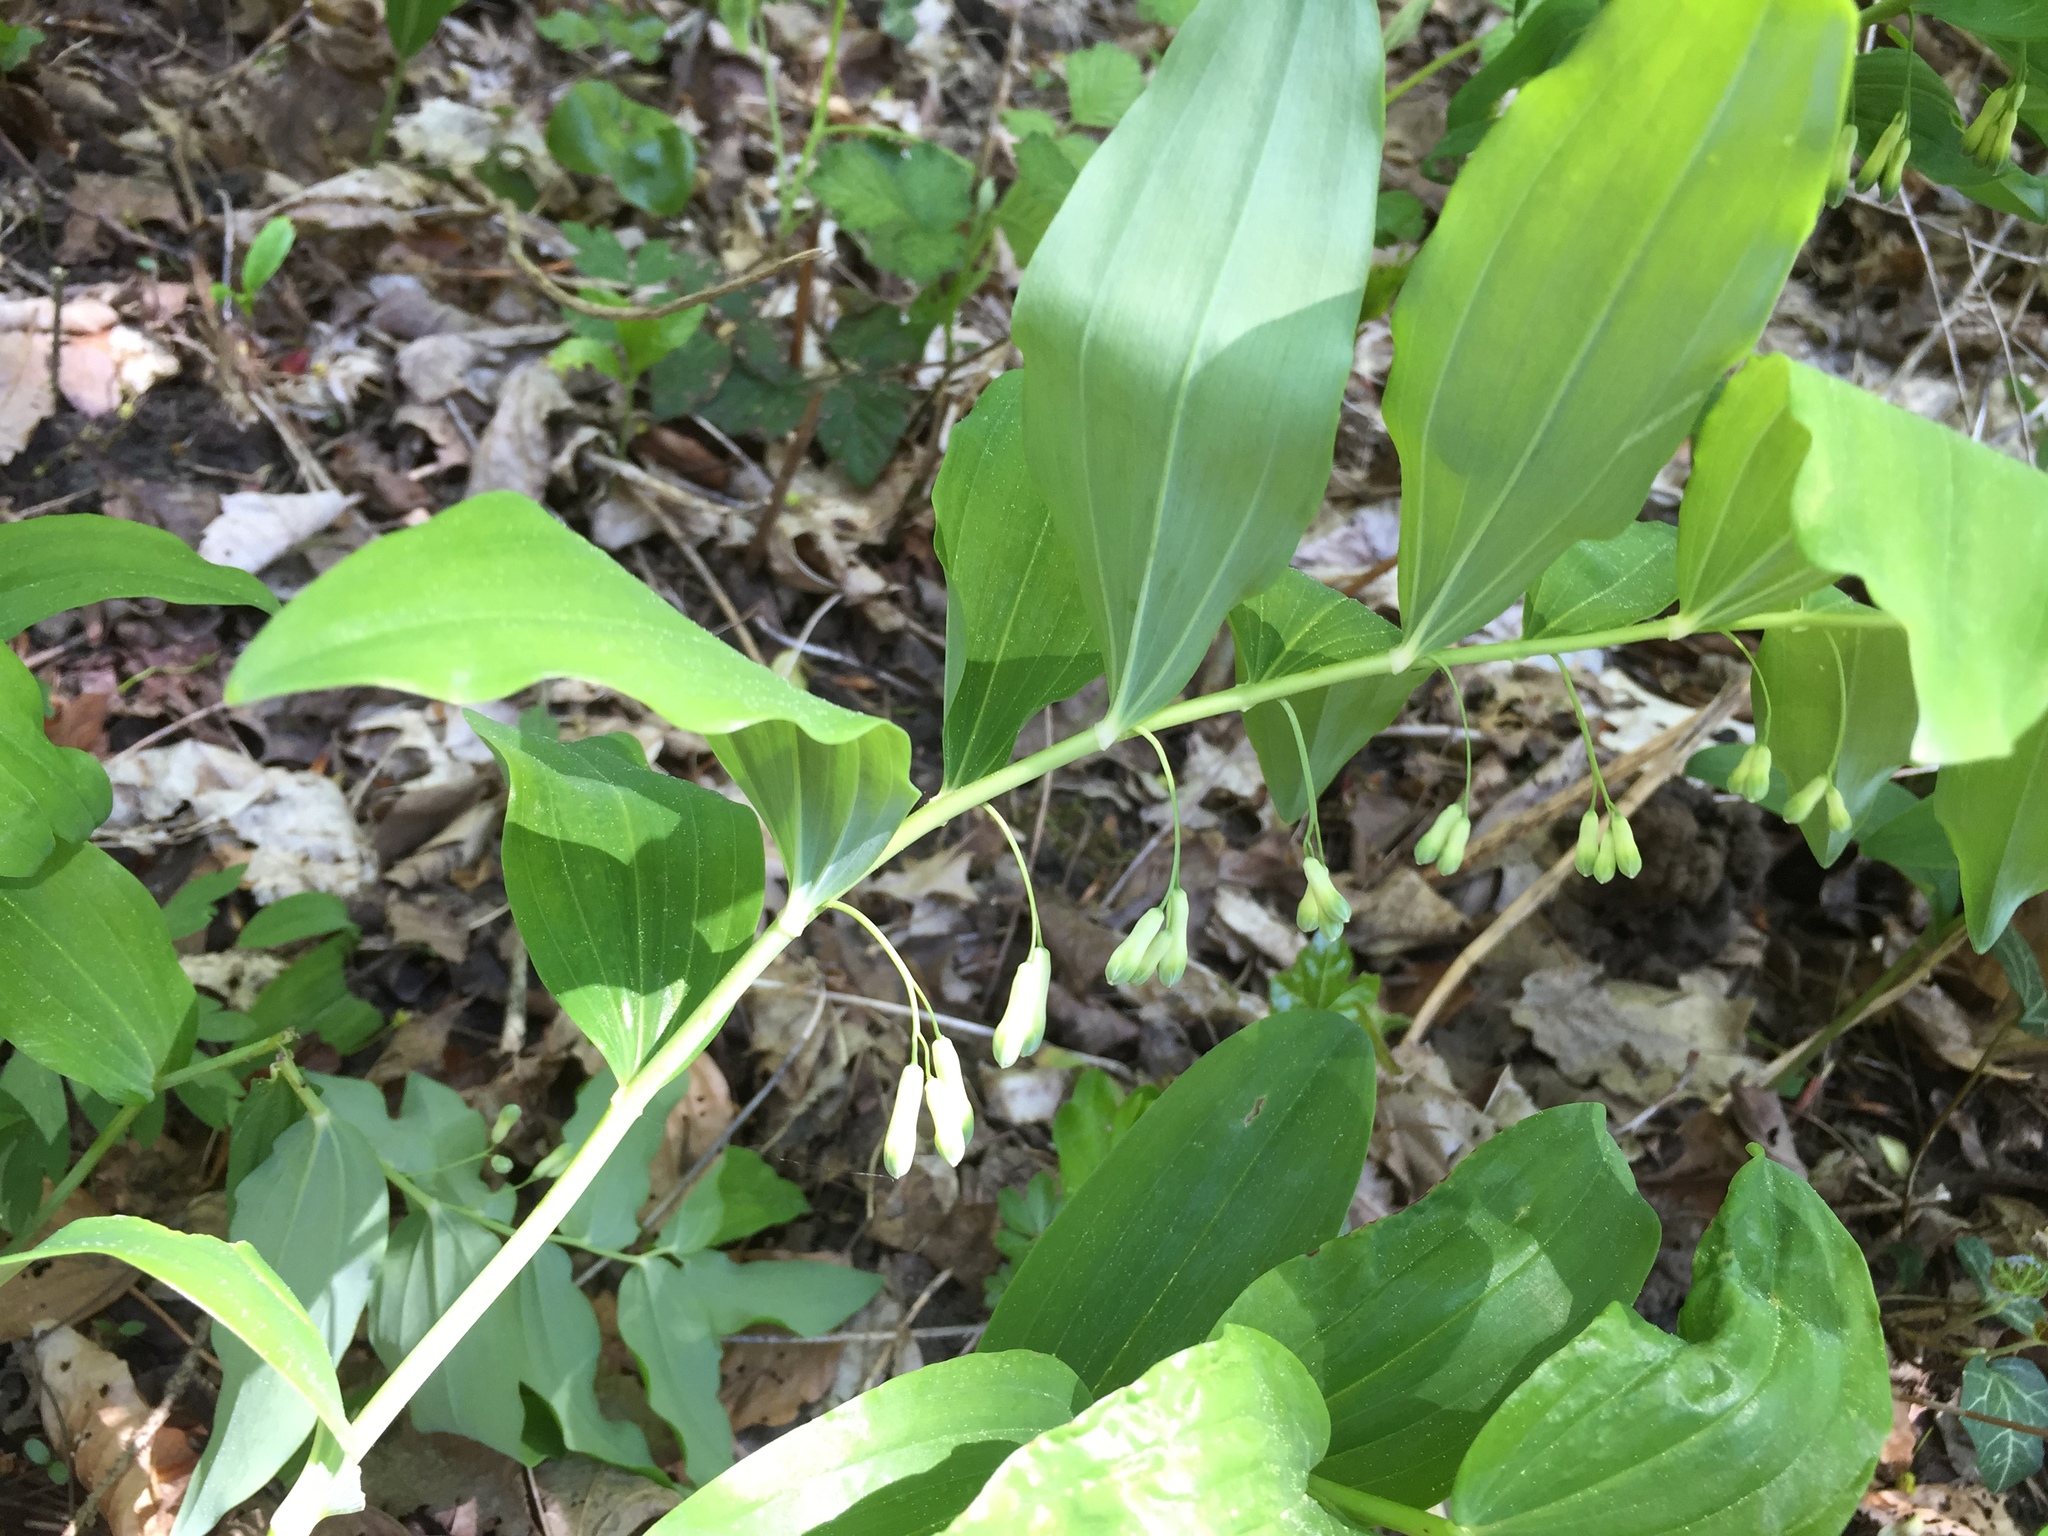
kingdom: Plantae
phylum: Tracheophyta
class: Liliopsida
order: Asparagales
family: Asparagaceae
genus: Polygonatum
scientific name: Polygonatum multiflorum
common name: Solomon's-seal
